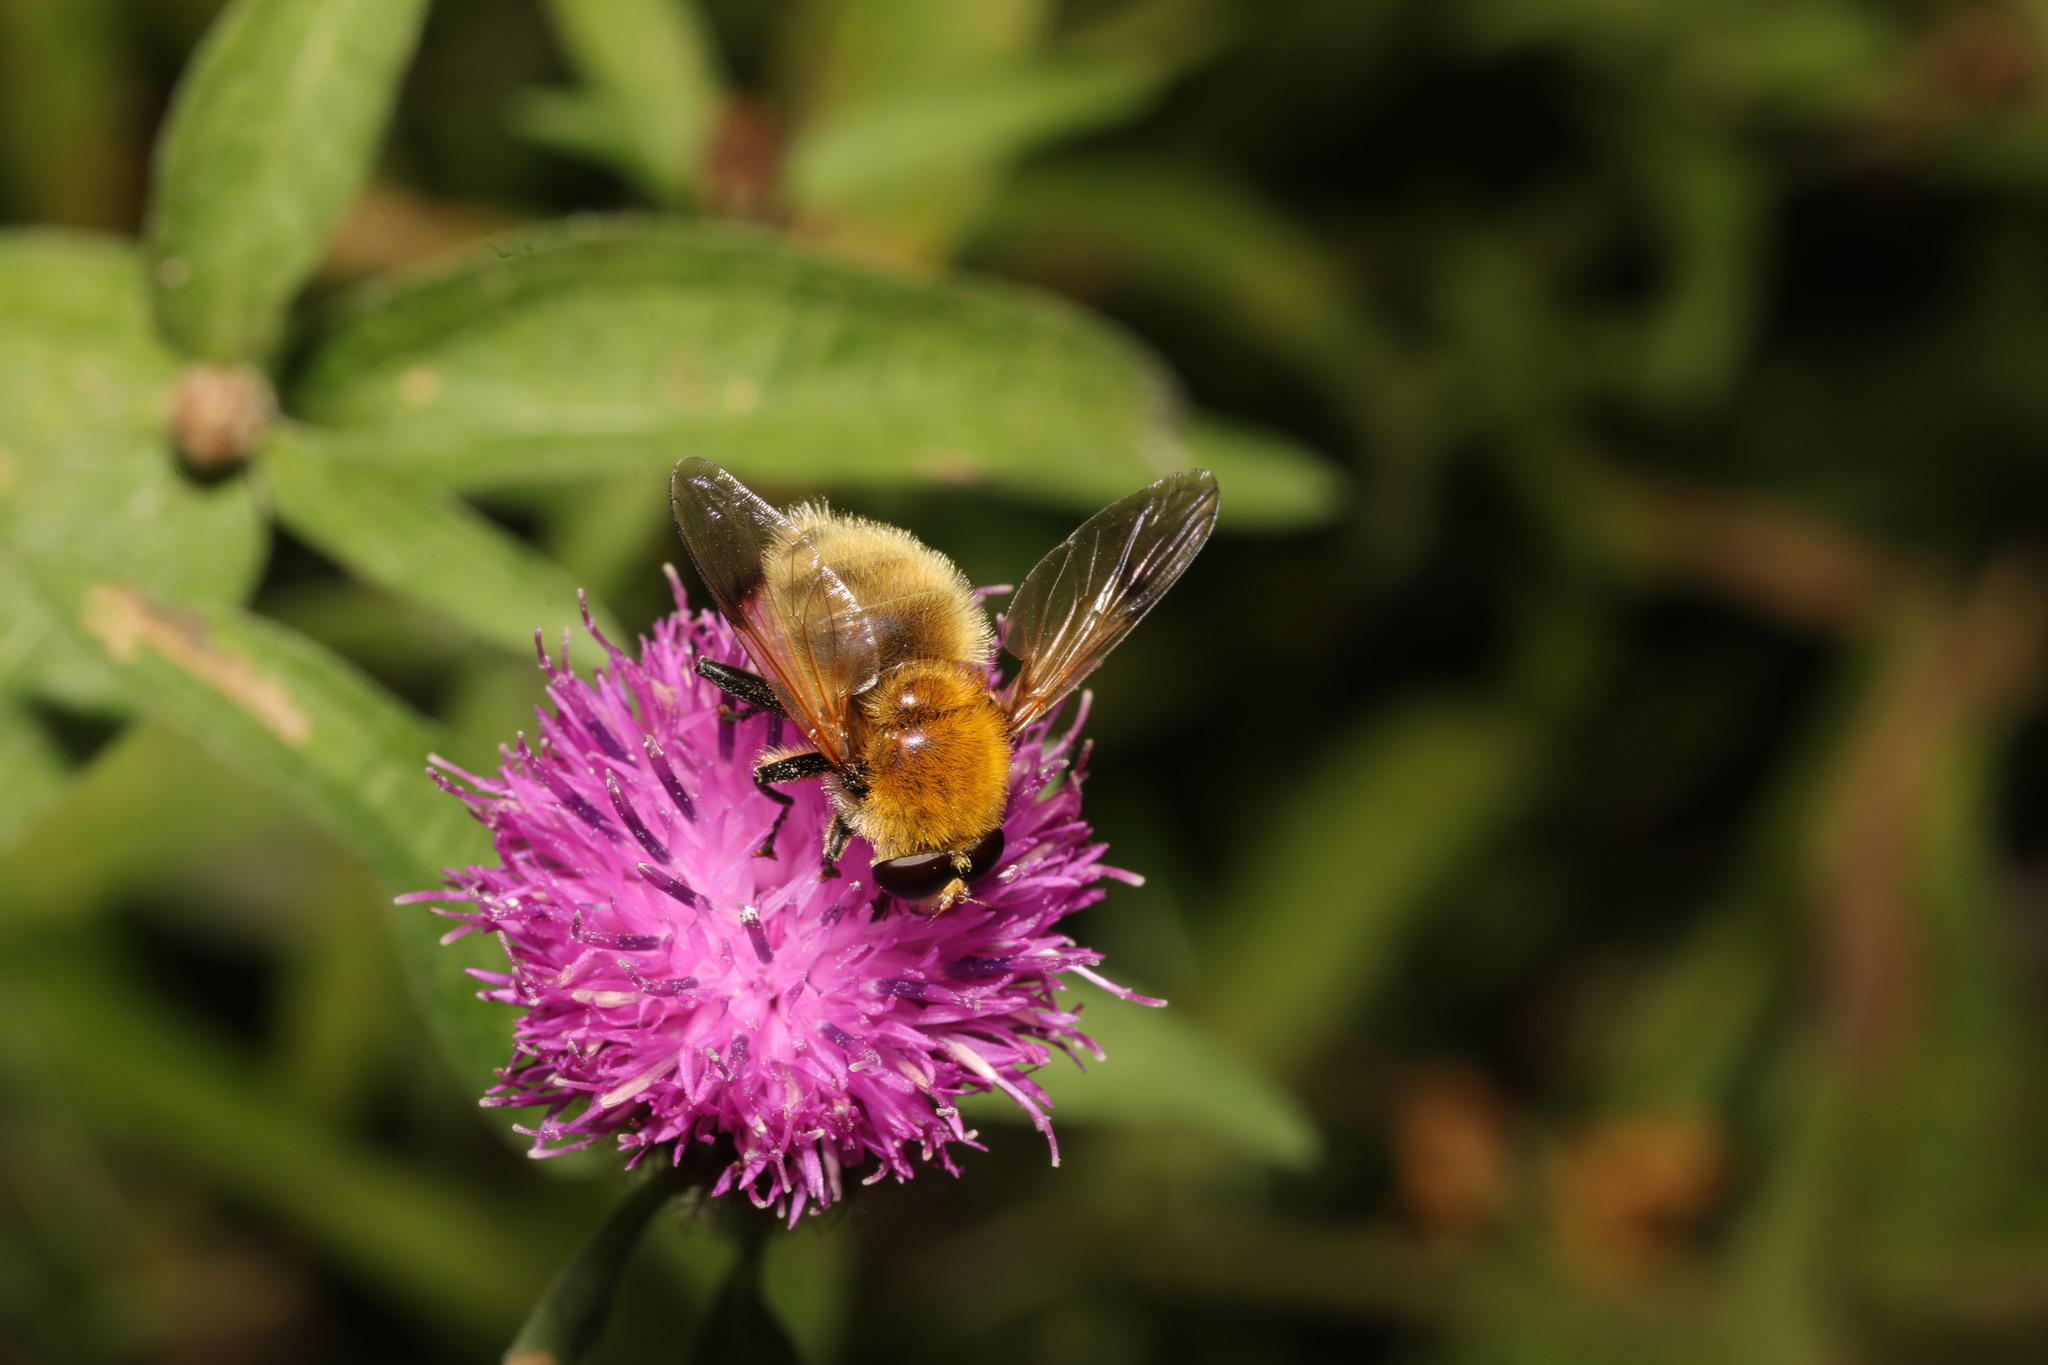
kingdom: Animalia
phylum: Arthropoda
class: Insecta
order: Diptera
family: Syrphidae
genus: Sericomyia
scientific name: Sericomyia superbiens
